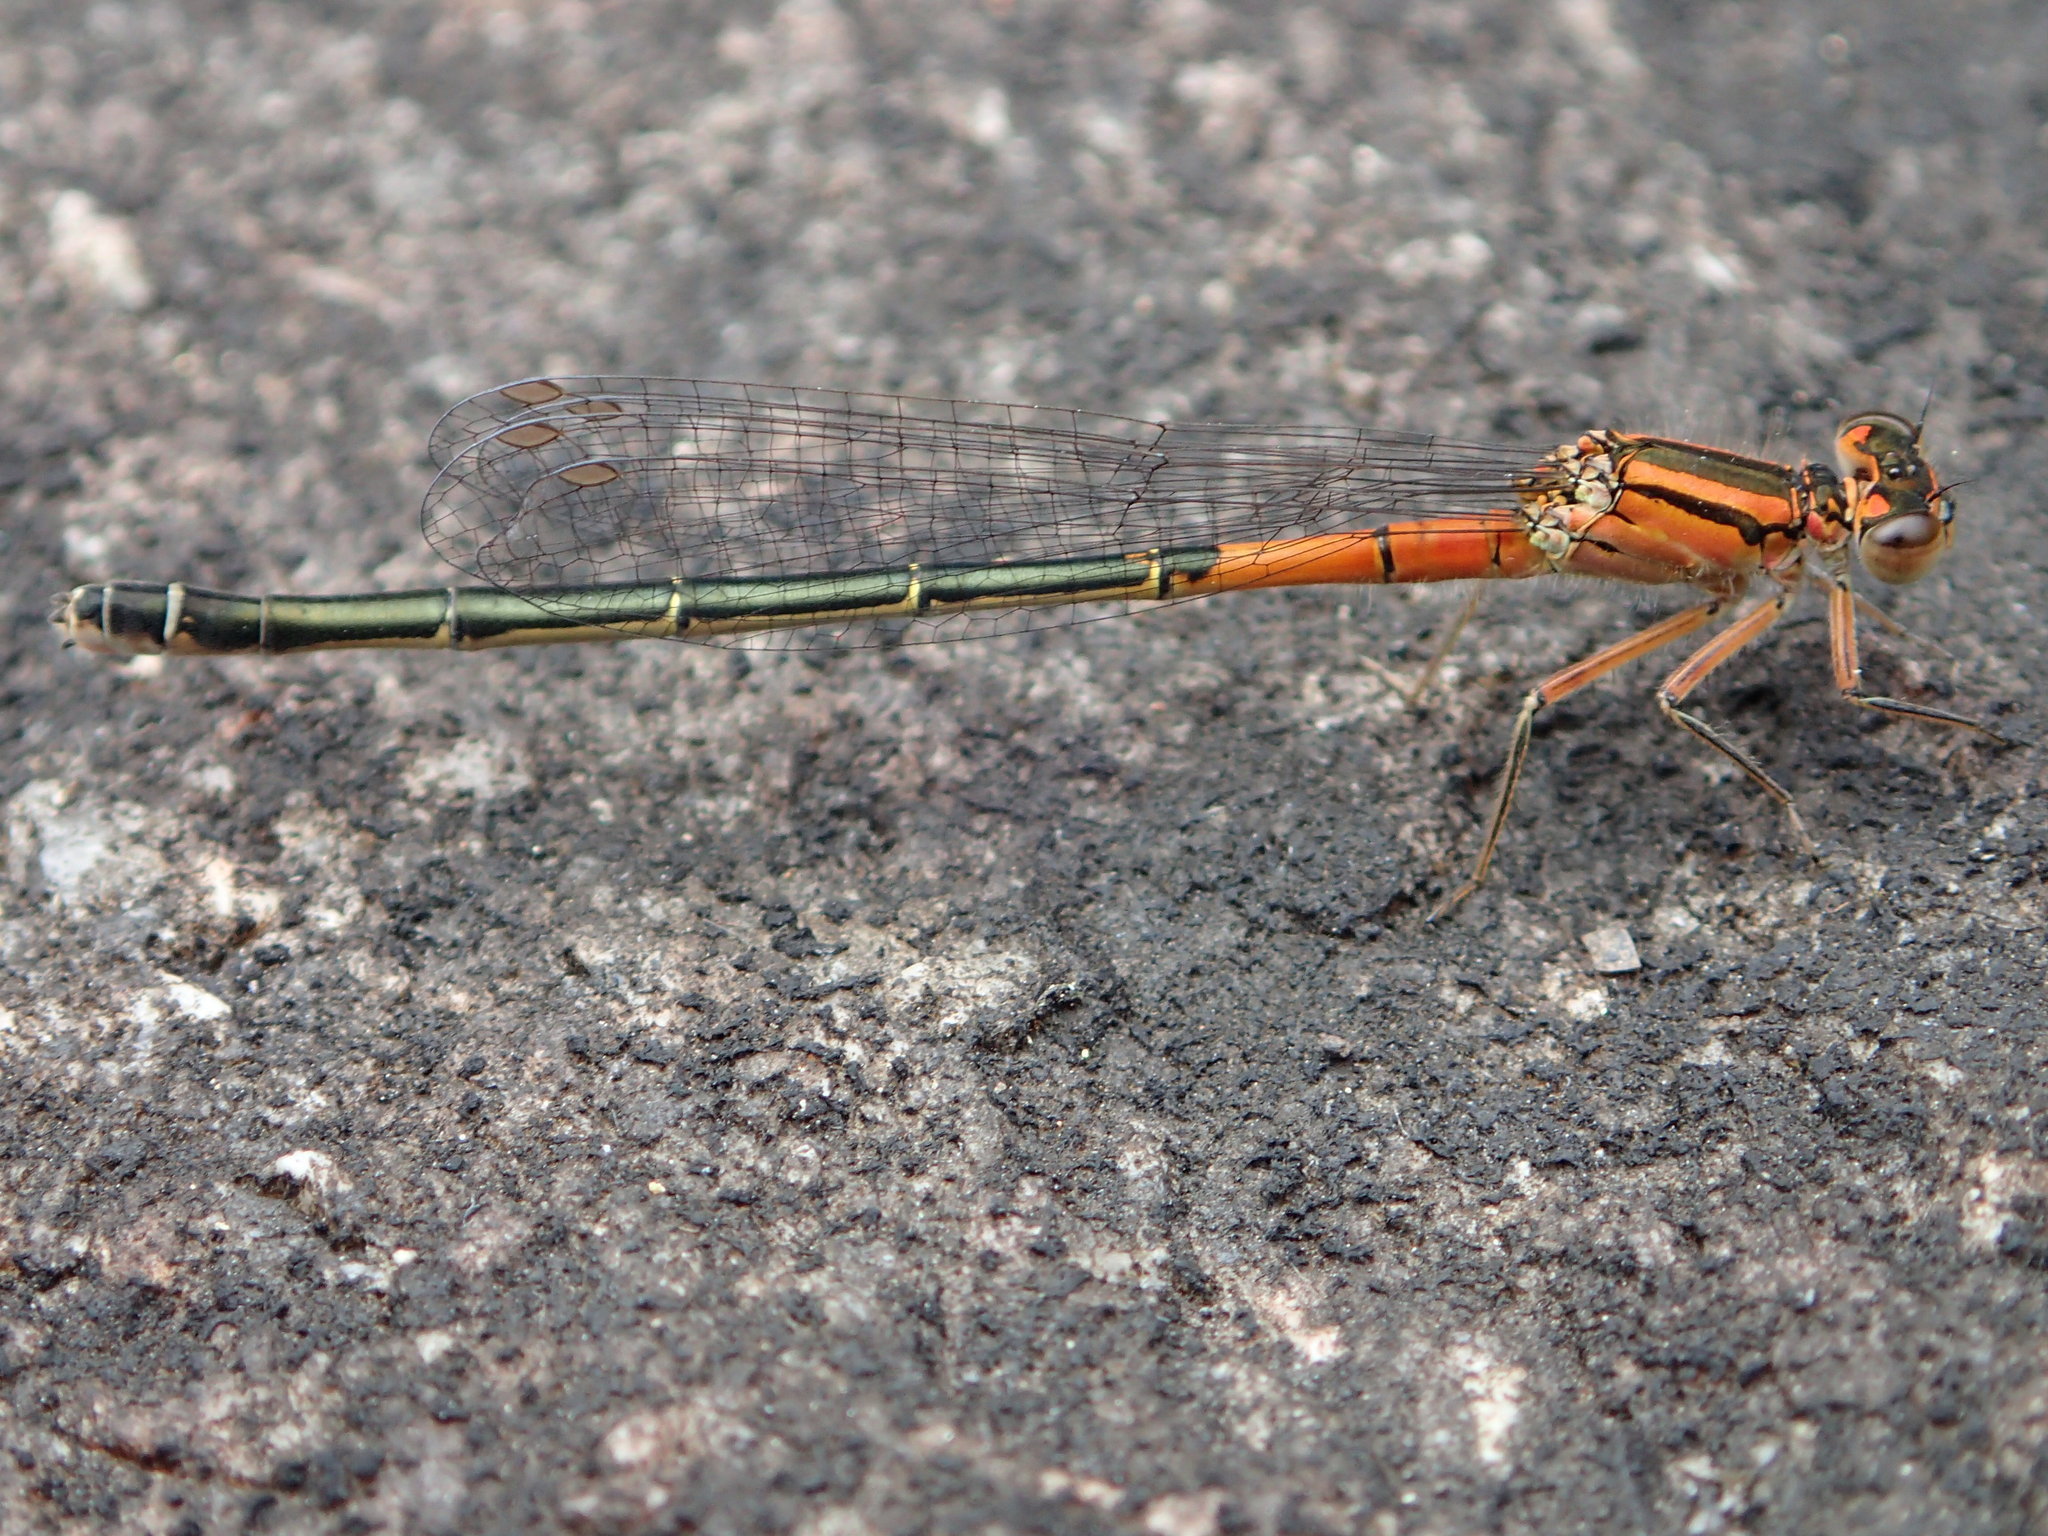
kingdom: Animalia
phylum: Arthropoda
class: Insecta
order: Odonata
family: Coenagrionidae
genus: Ischnura
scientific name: Ischnura verticalis
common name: Eastern forktail
